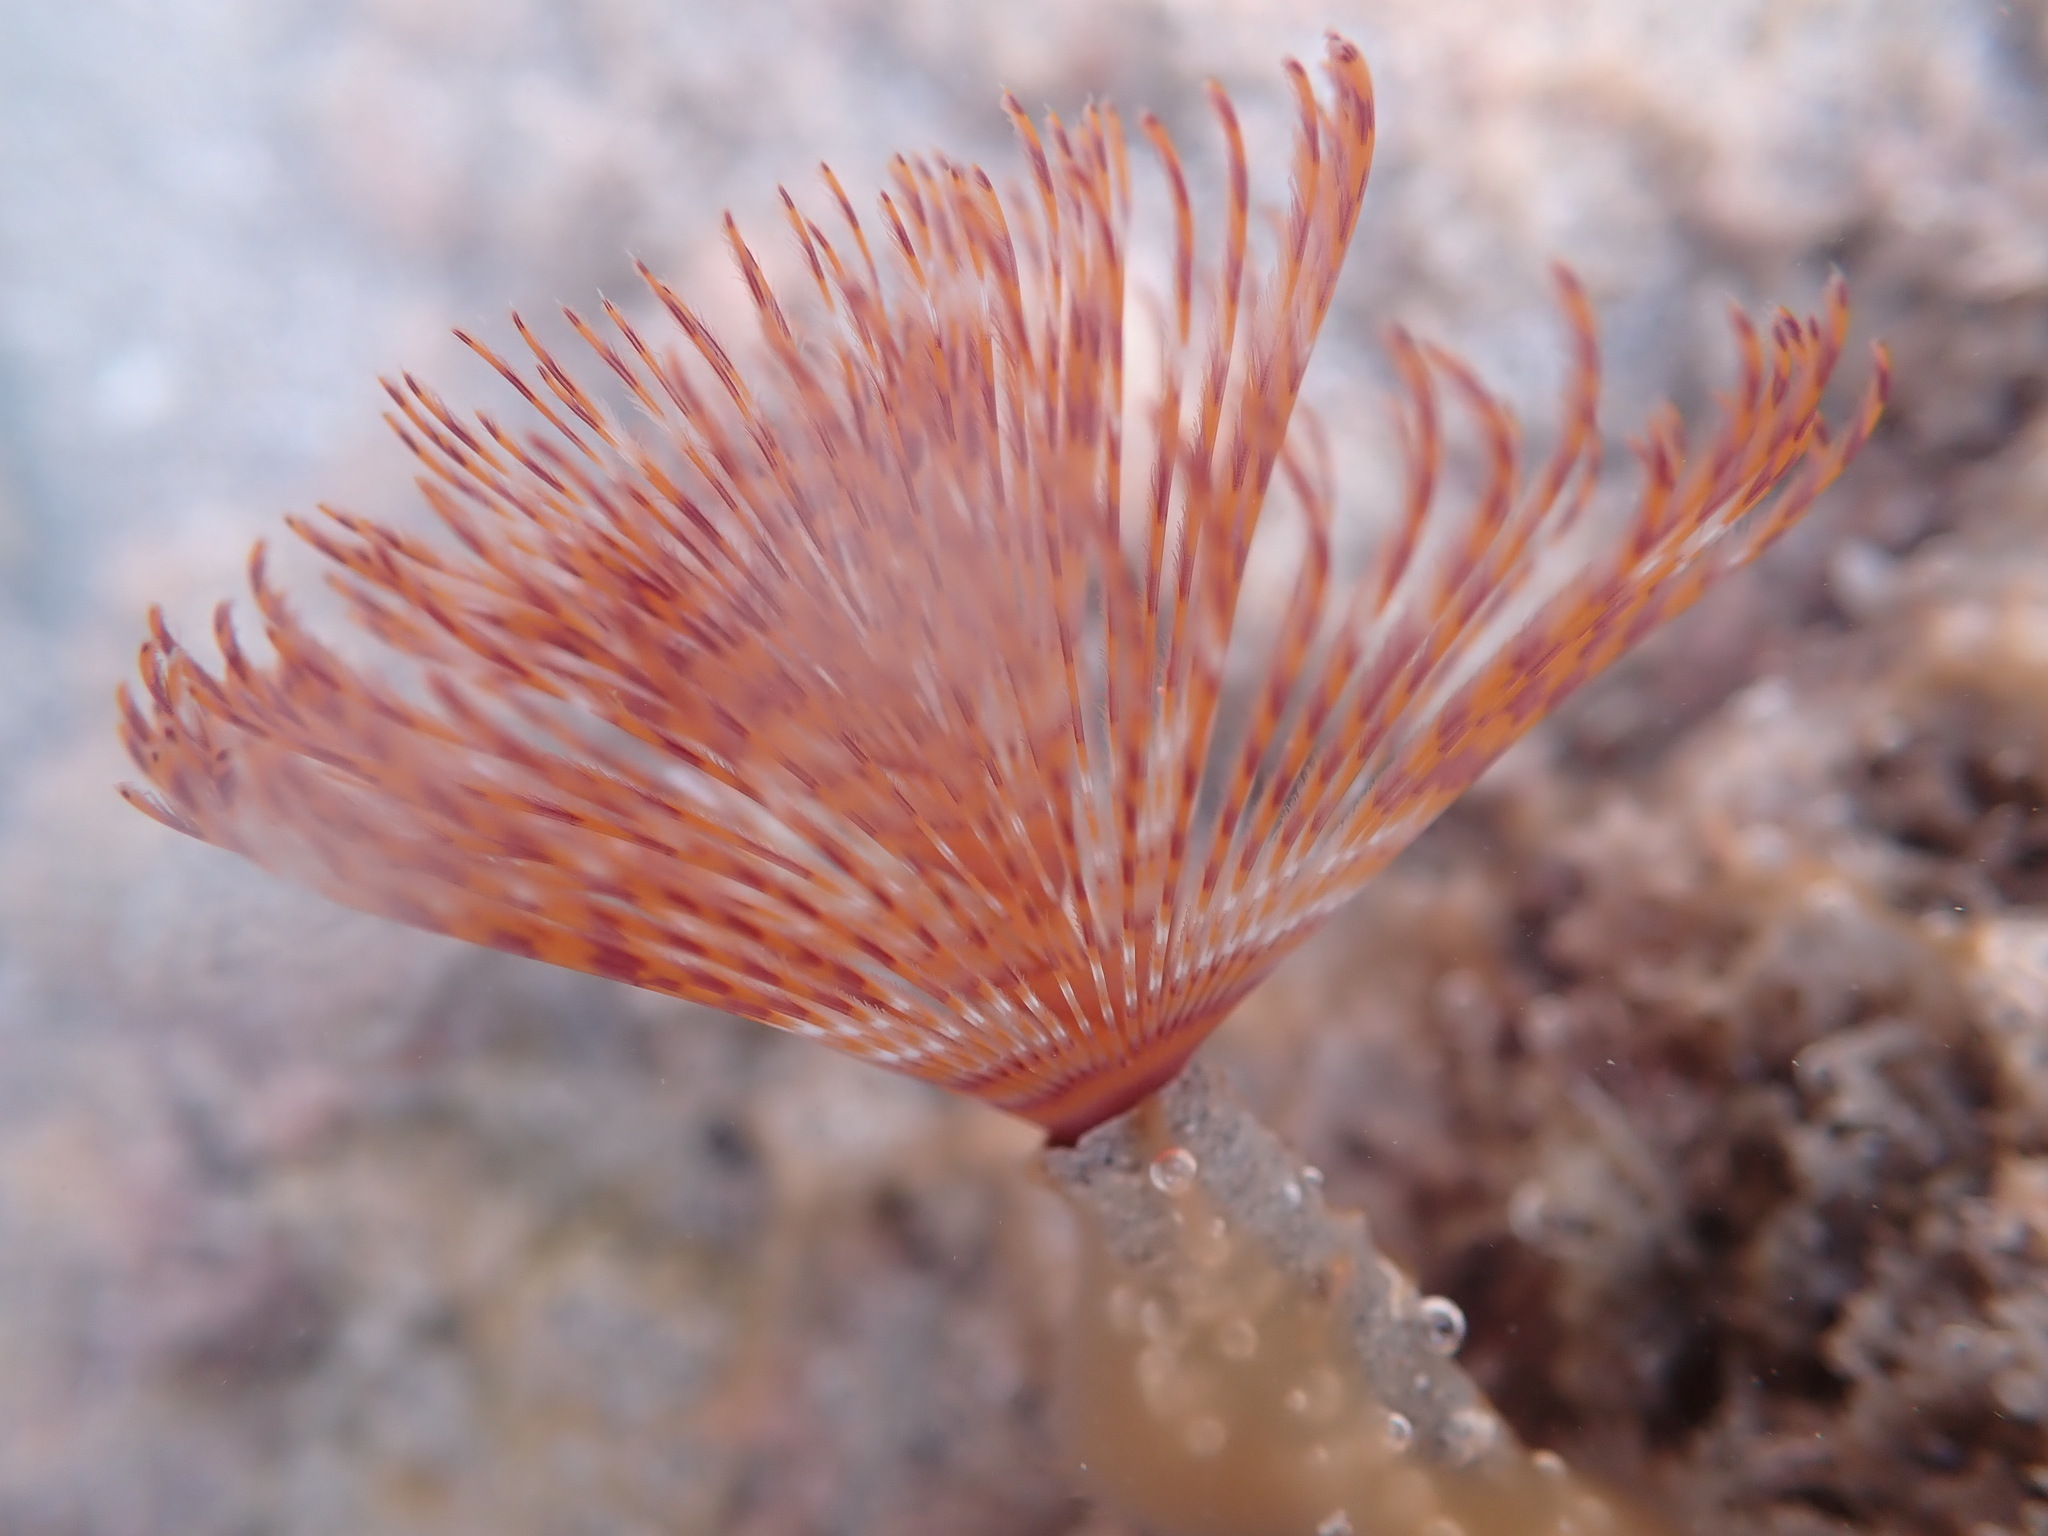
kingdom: Animalia
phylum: Annelida
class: Polychaeta
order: Sabellida
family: Sabellidae
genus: Sabella
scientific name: Sabella spallanzanii
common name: Feather duster worm
